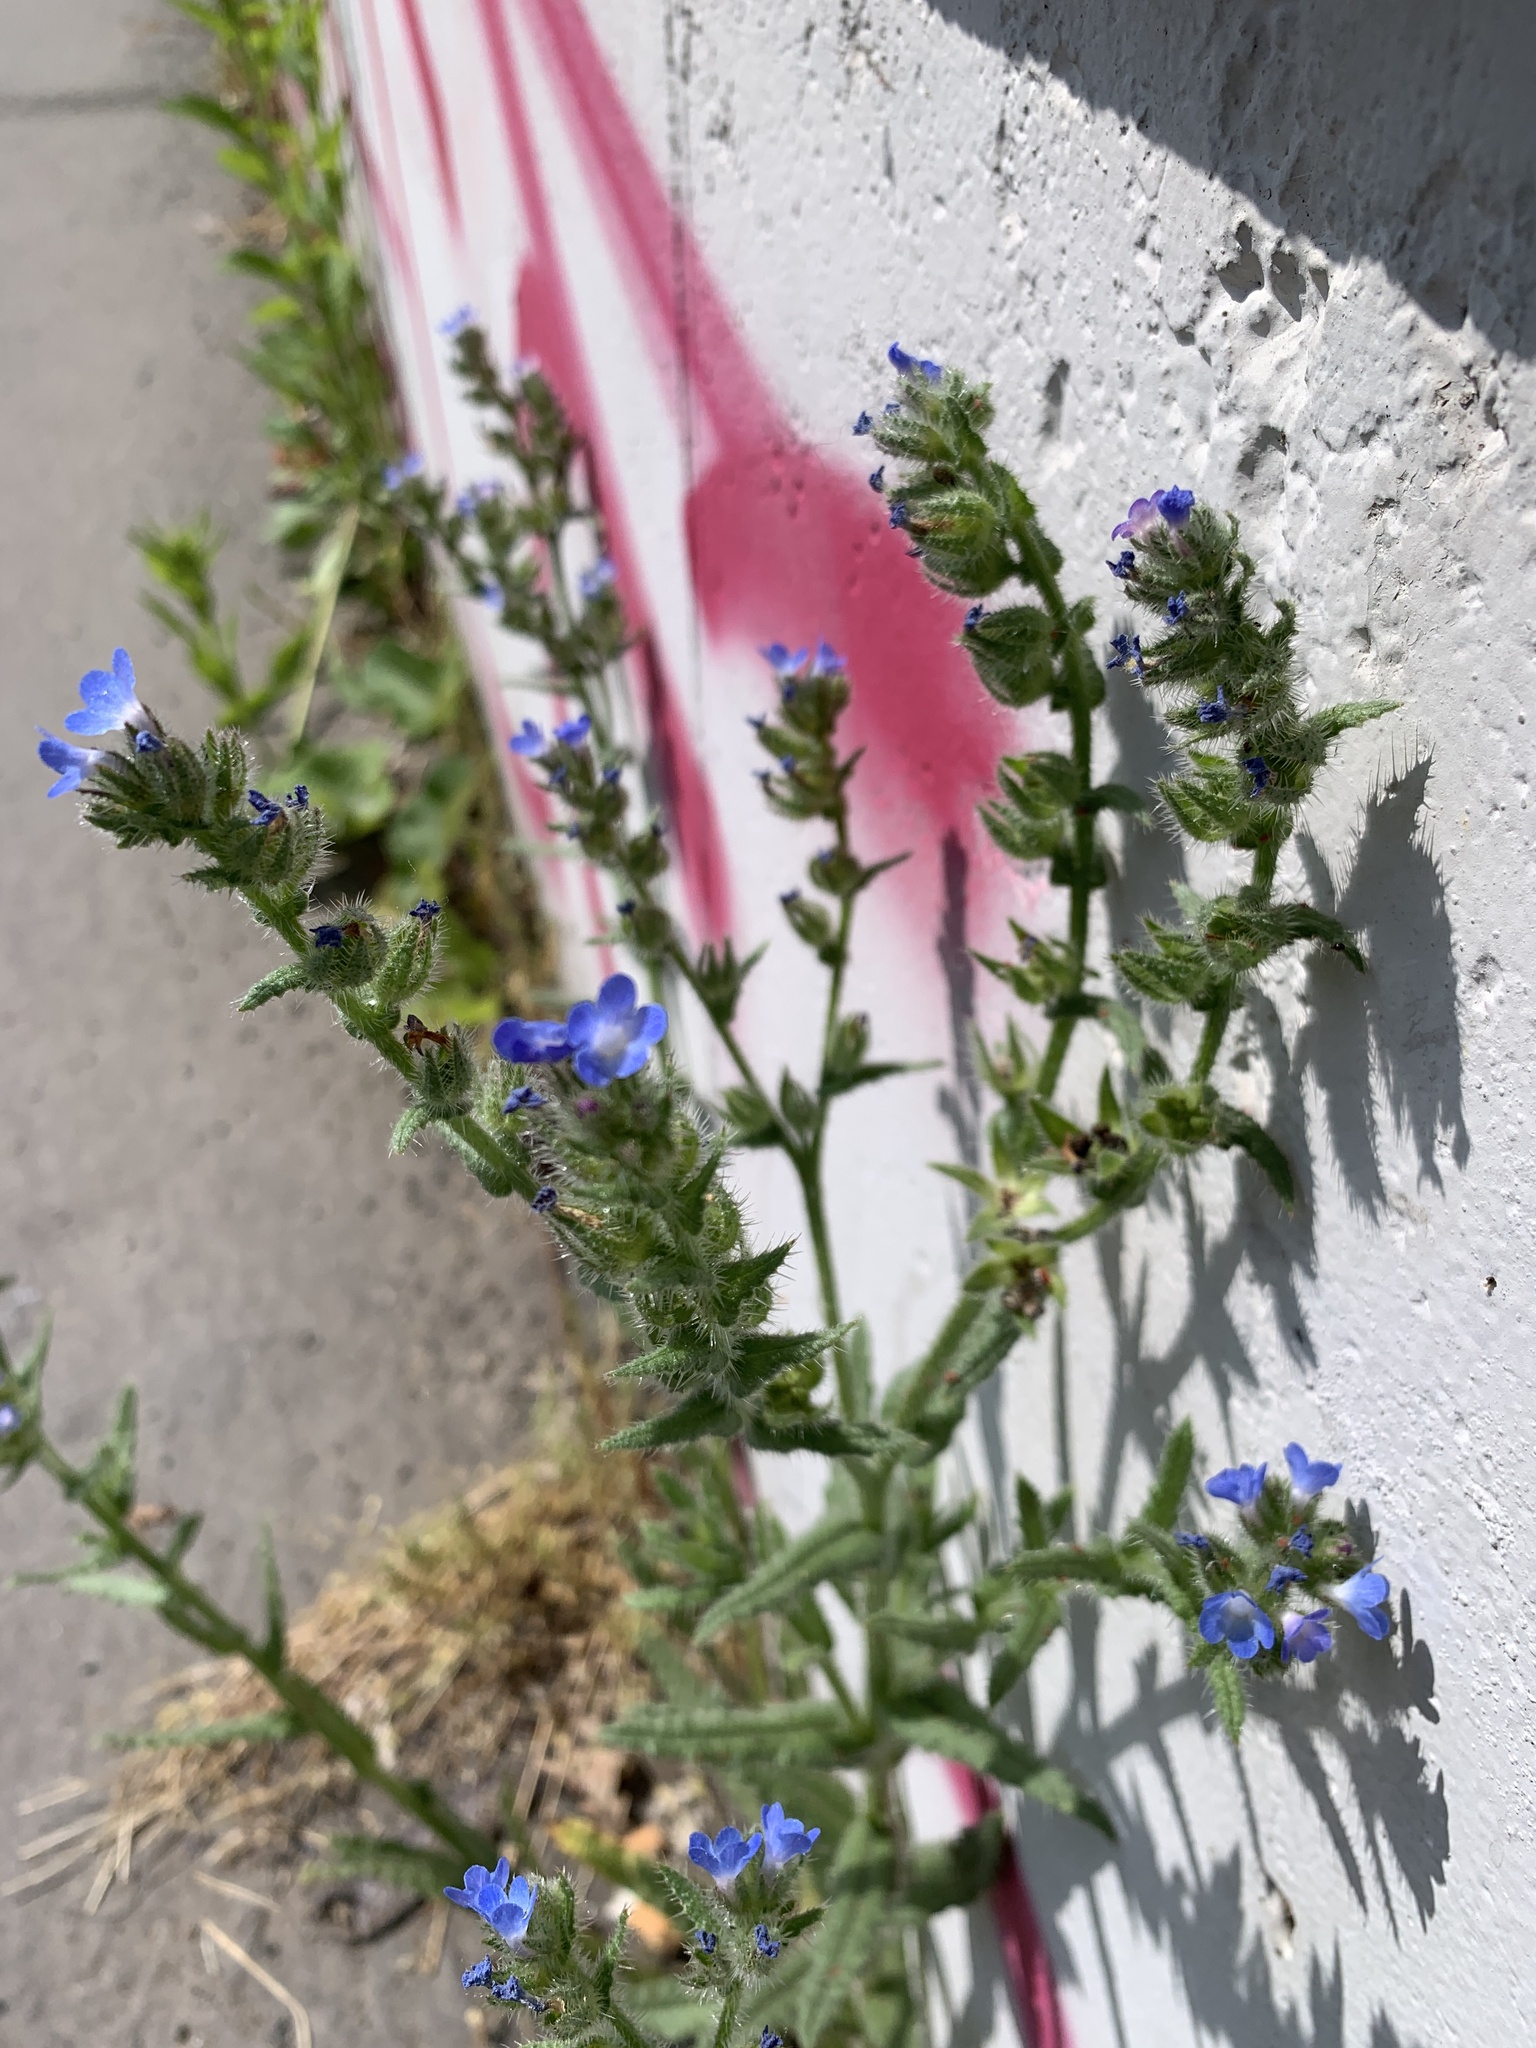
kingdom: Plantae
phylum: Tracheophyta
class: Magnoliopsida
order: Boraginales
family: Boraginaceae
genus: Lycopsis
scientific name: Lycopsis arvensis
